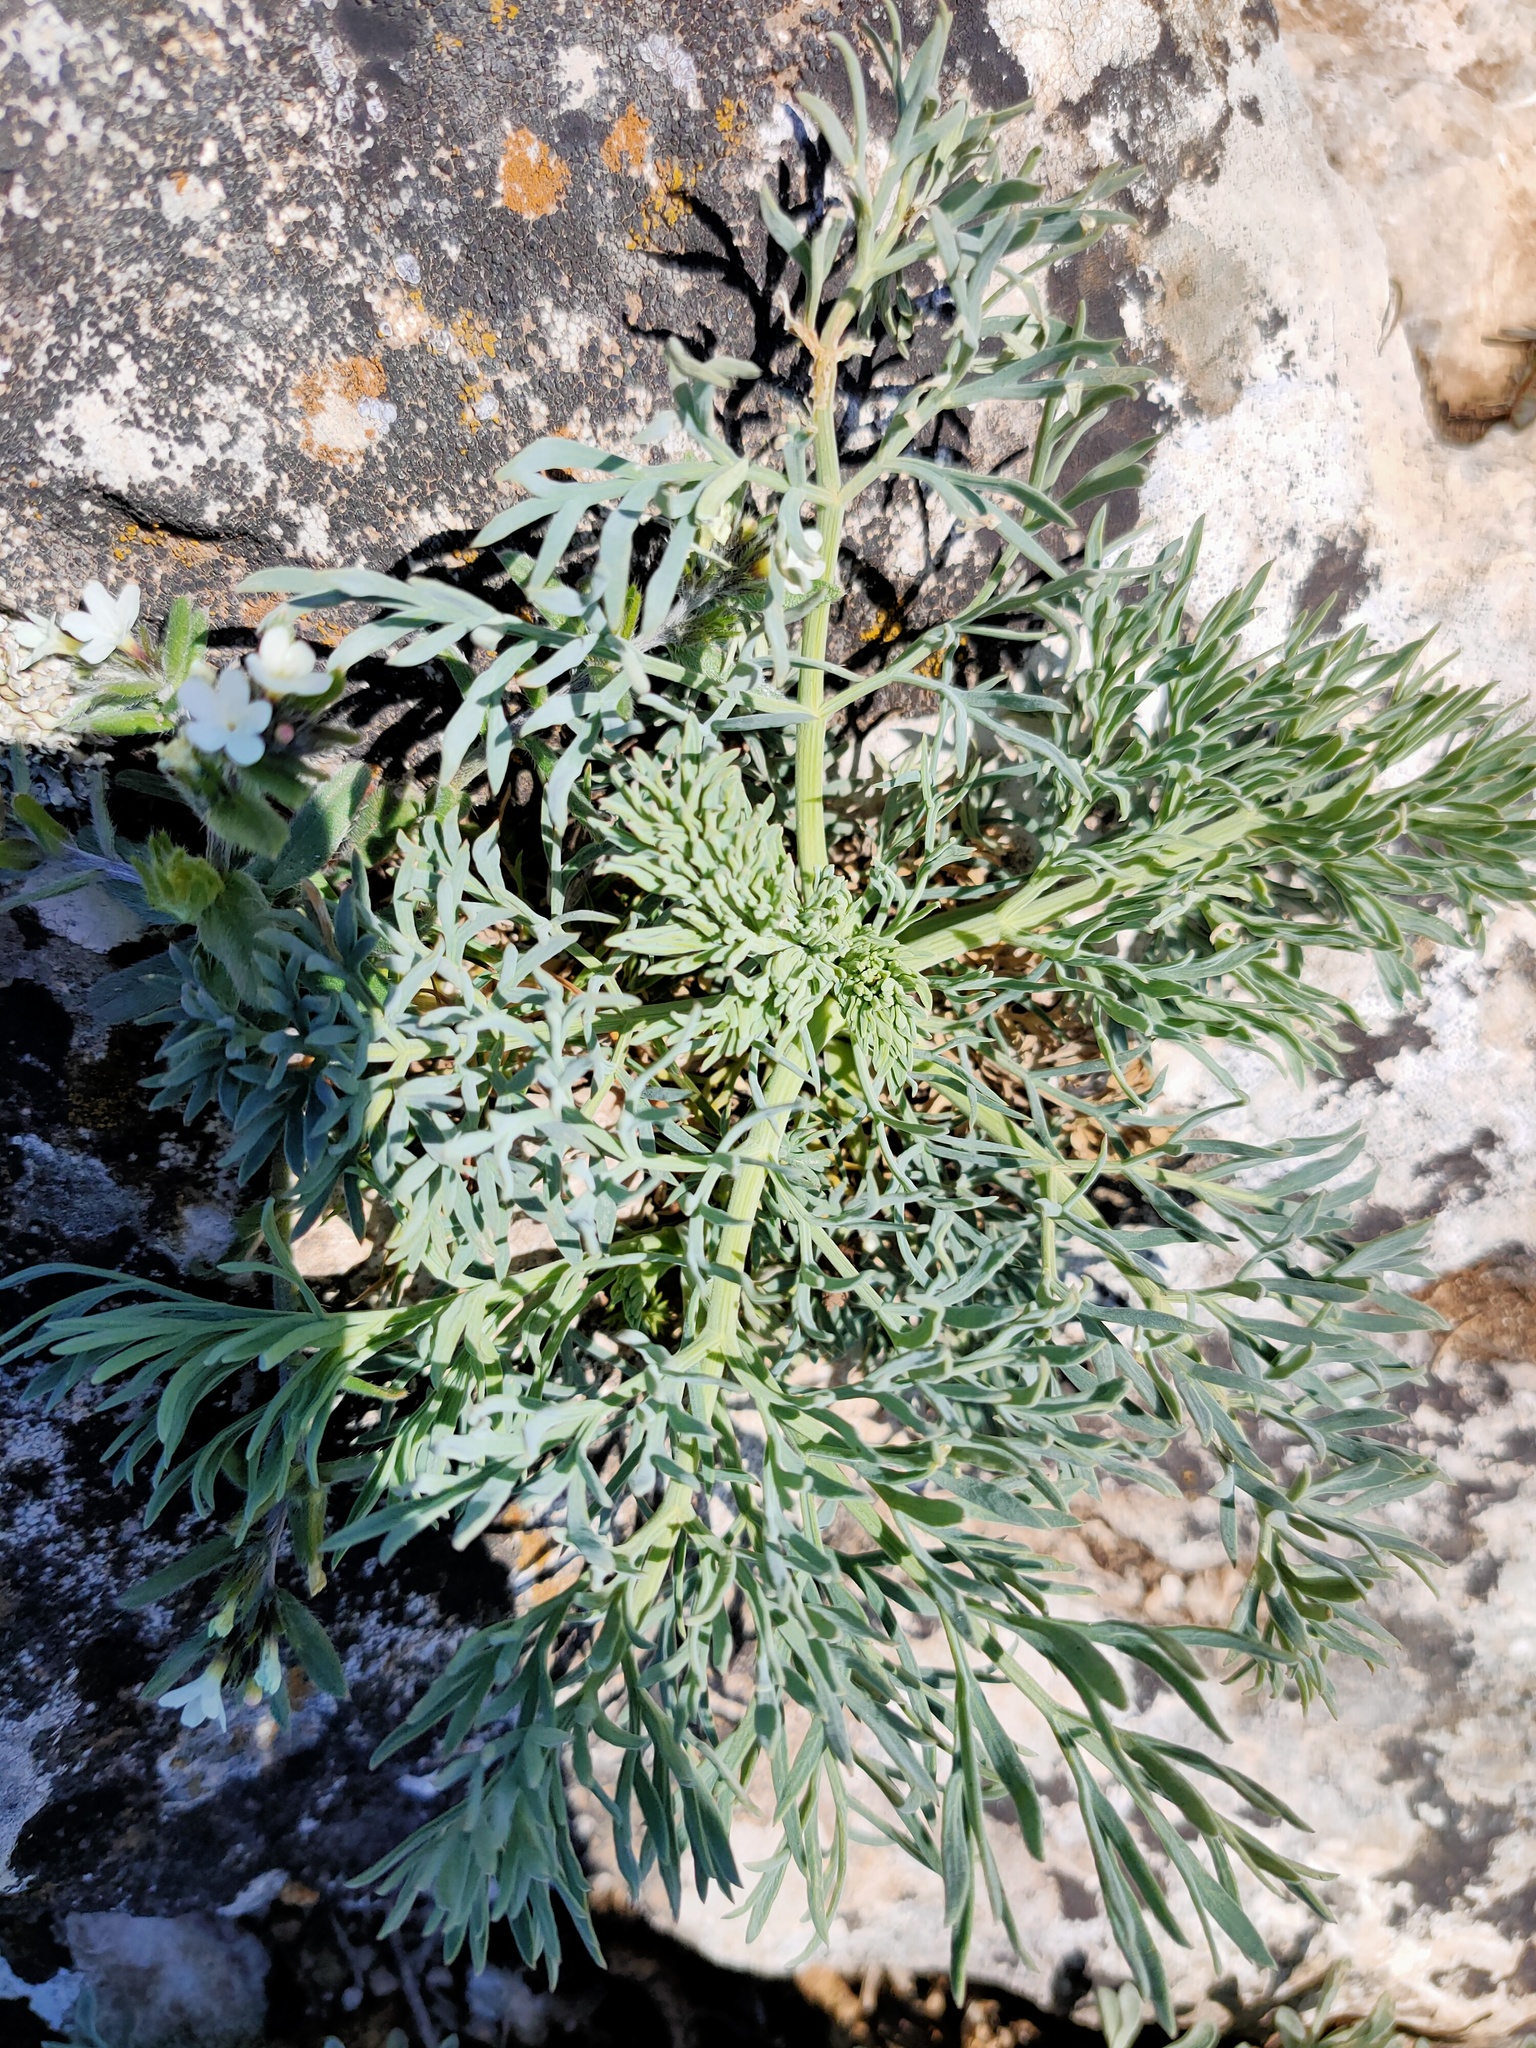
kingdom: Plantae
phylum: Tracheophyta
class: Magnoliopsida
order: Apiales
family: Apiaceae
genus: Seseli
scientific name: Seseli gummiferum
